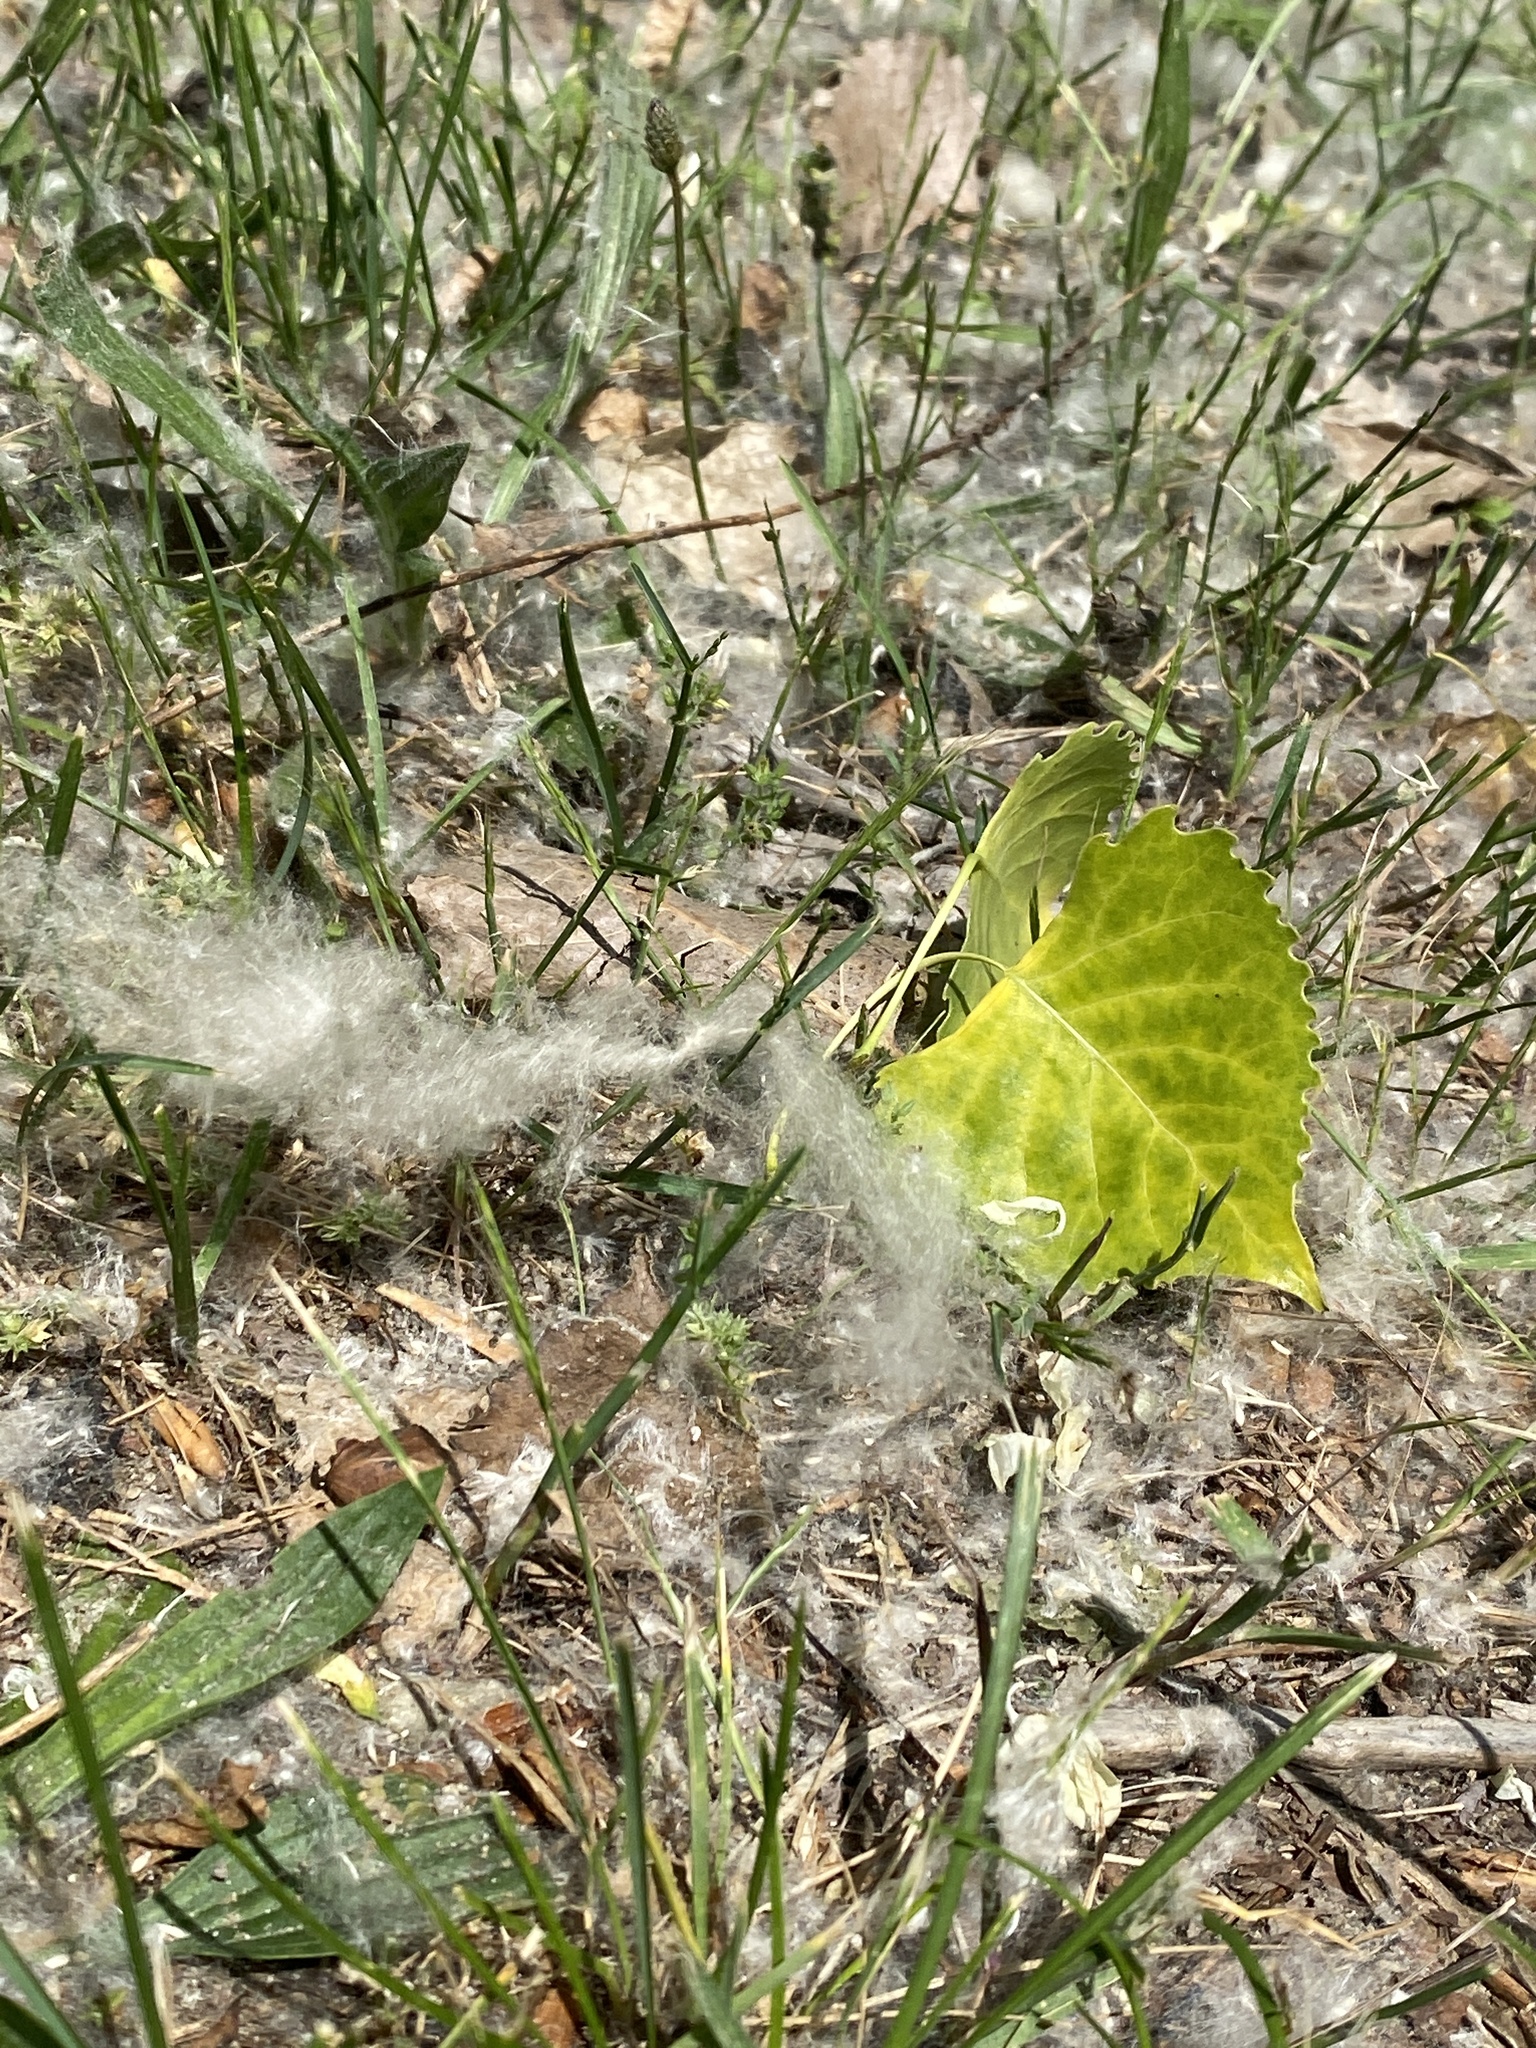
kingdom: Plantae
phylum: Tracheophyta
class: Magnoliopsida
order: Malpighiales
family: Salicaceae
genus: Populus
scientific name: Populus deltoides
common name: Eastern cottonwood
